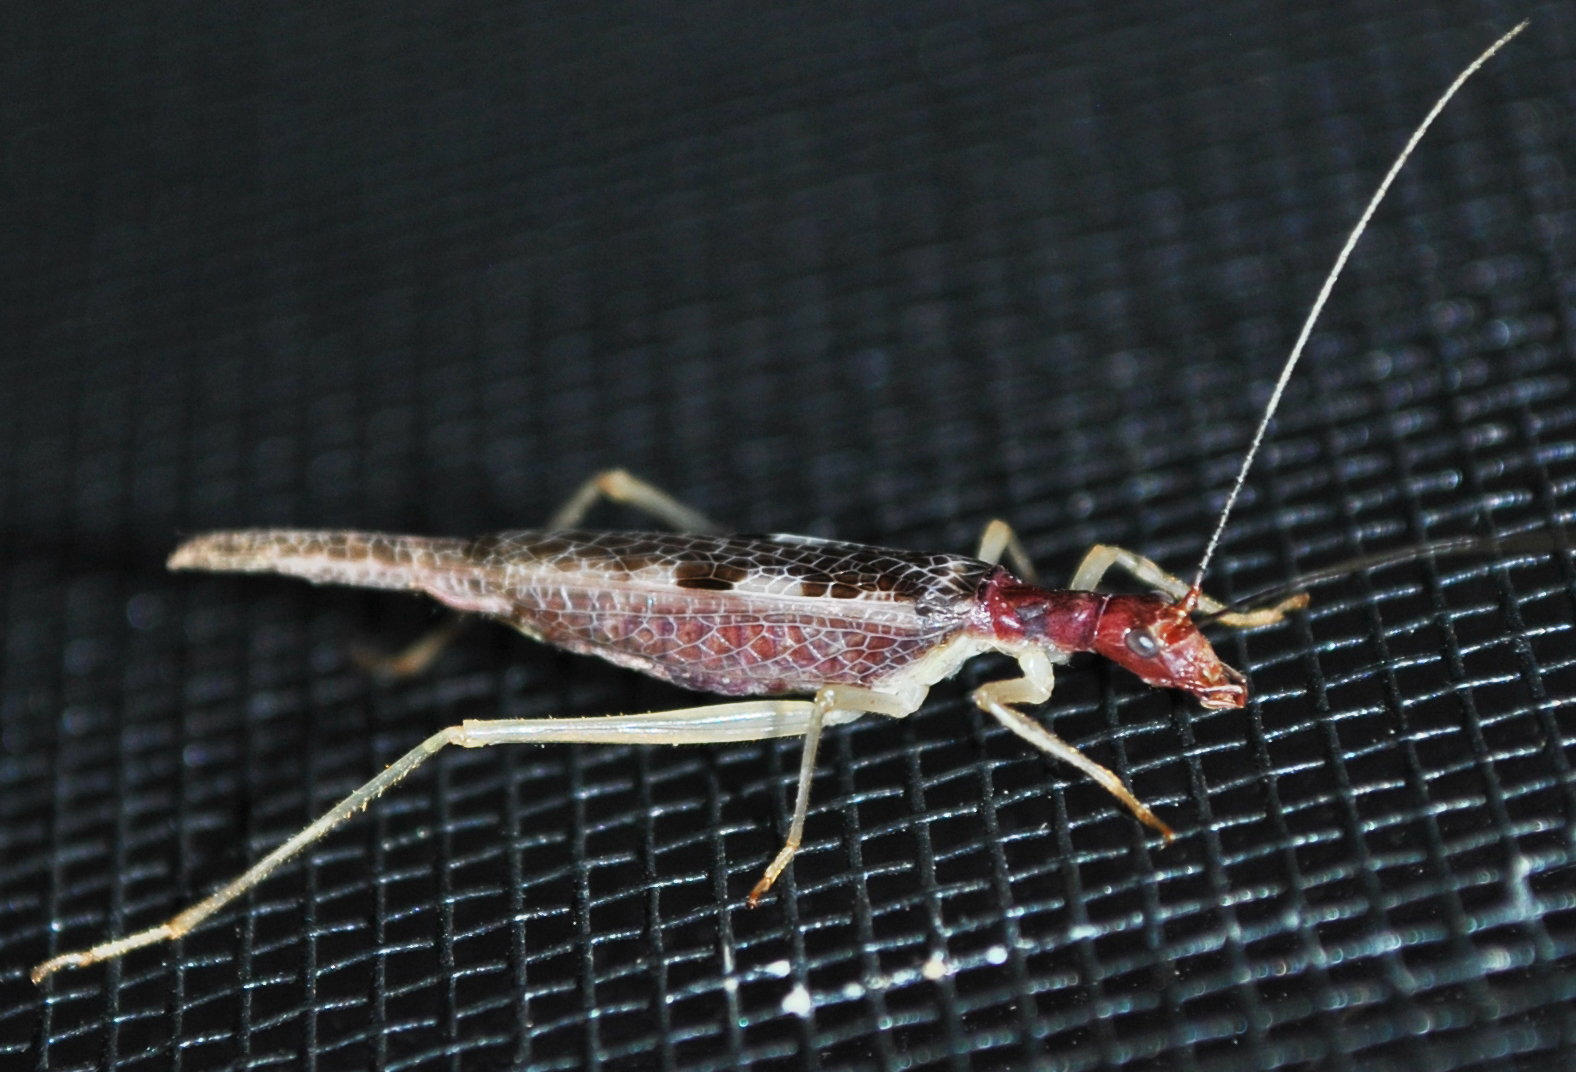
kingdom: Animalia
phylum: Arthropoda
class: Insecta
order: Orthoptera
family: Gryllidae
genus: Neoxabea
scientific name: Neoxabea bipunctata
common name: Two-spotted tree cricket
